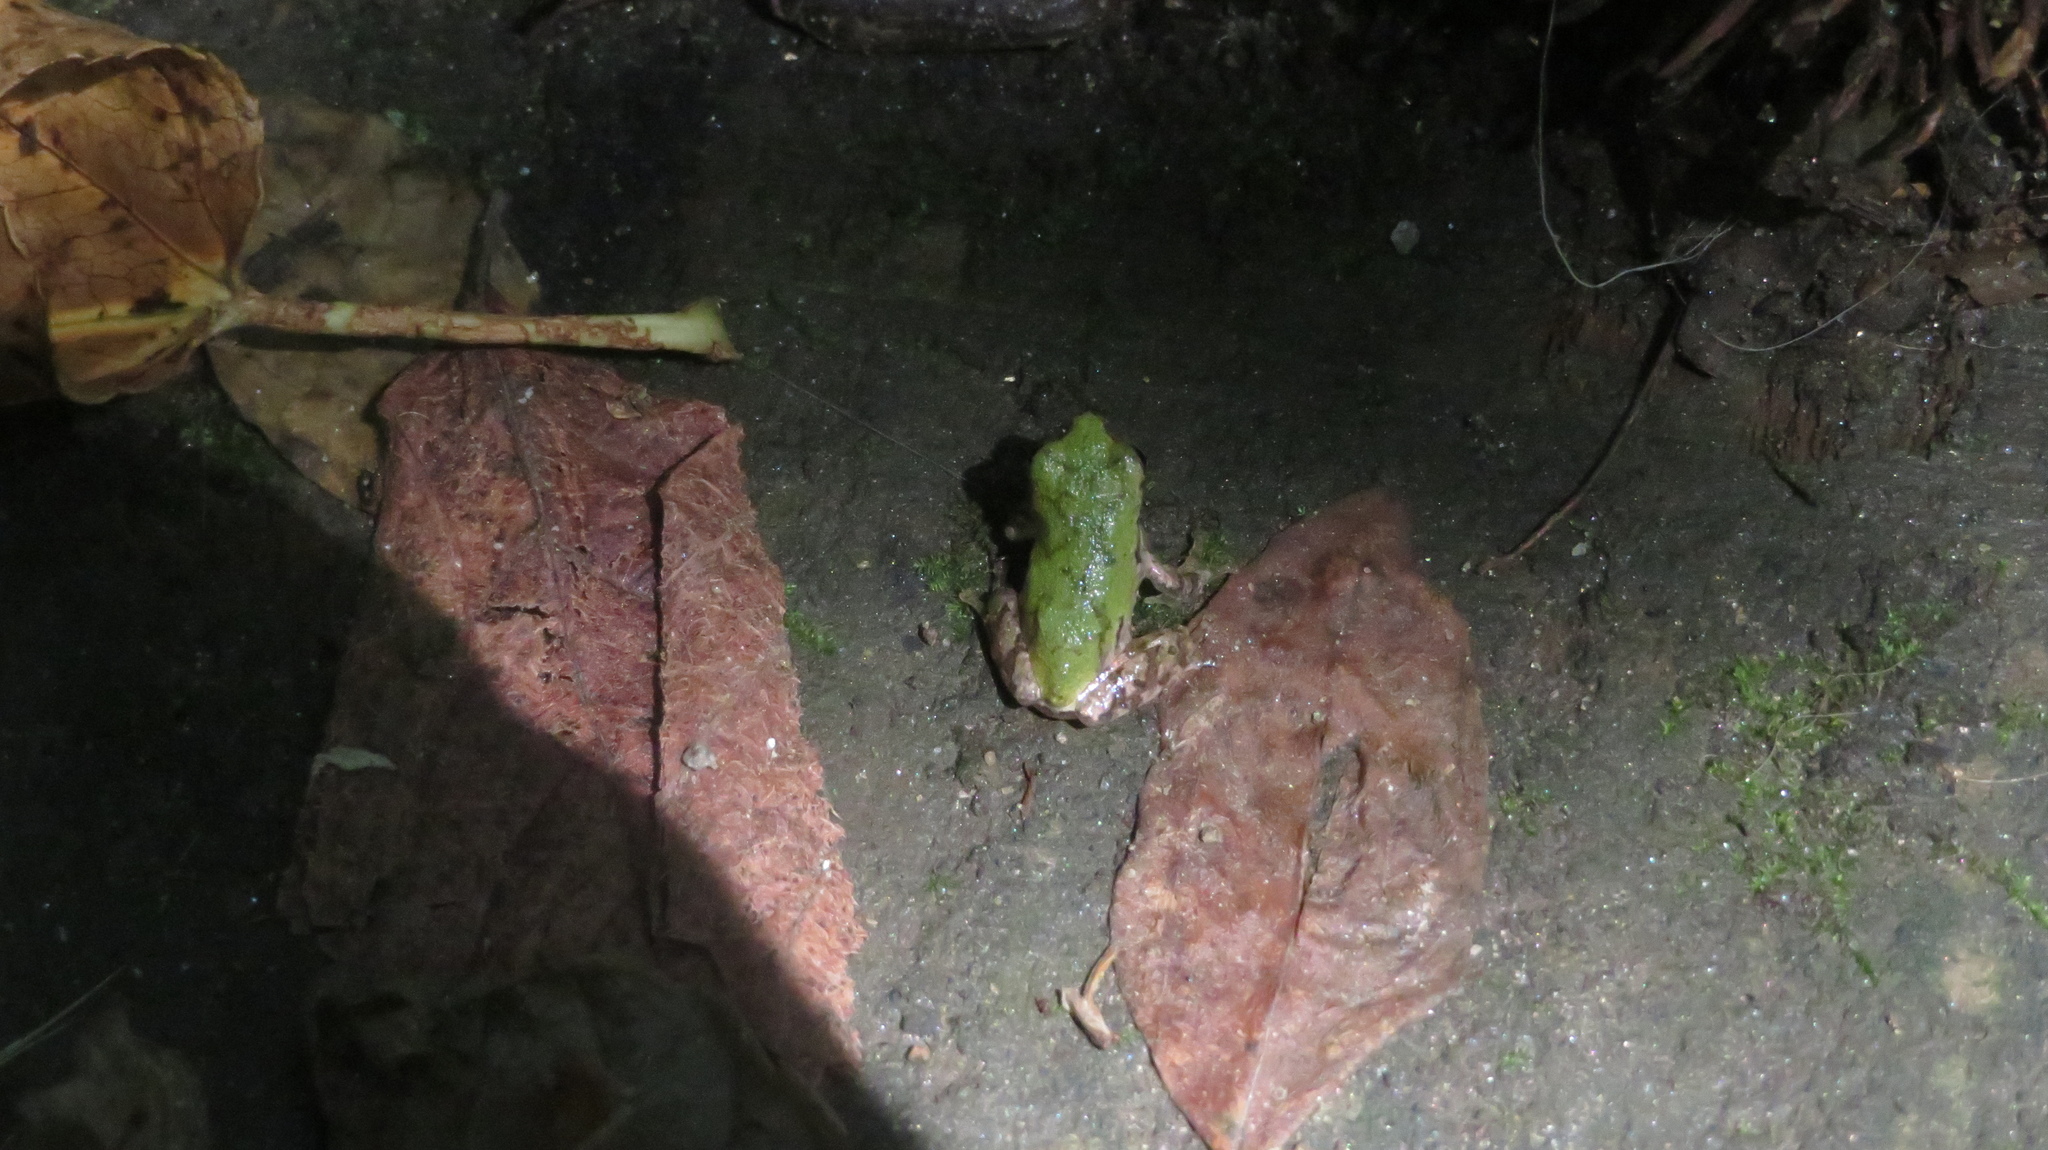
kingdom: Animalia
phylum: Chordata
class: Amphibia
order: Anura
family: Hylidae
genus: Dryophytes
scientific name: Dryophytes chrysoscelis
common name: Cope's gray treefrog
